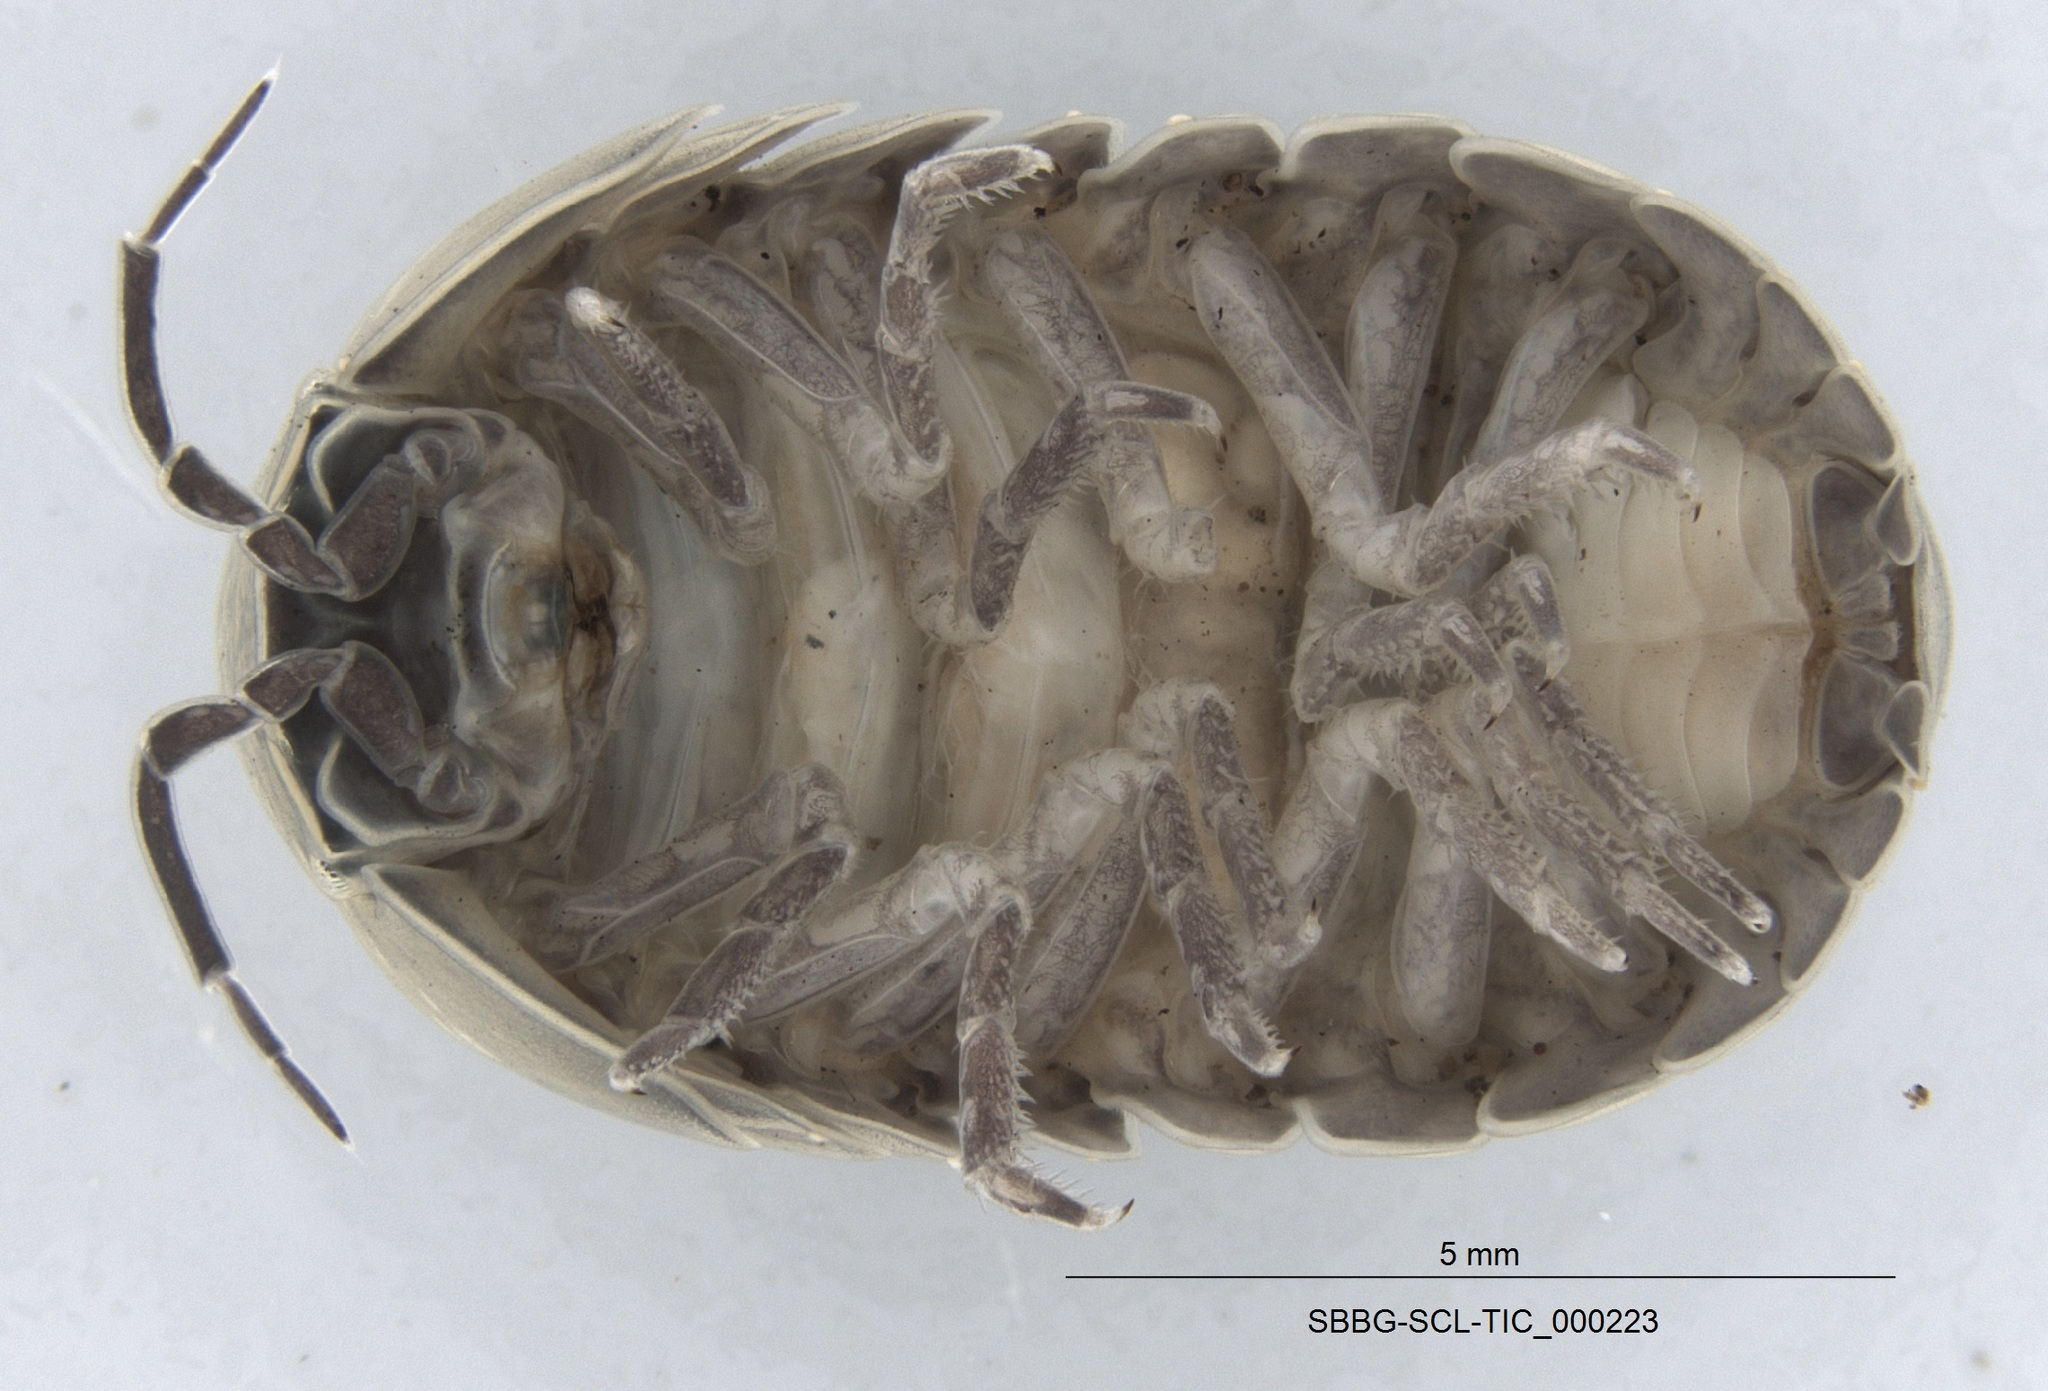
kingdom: Animalia
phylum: Arthropoda
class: Malacostraca
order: Isopoda
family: Armadillidiidae
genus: Armadillidium
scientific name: Armadillidium vulgare
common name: Common pill woodlouse
